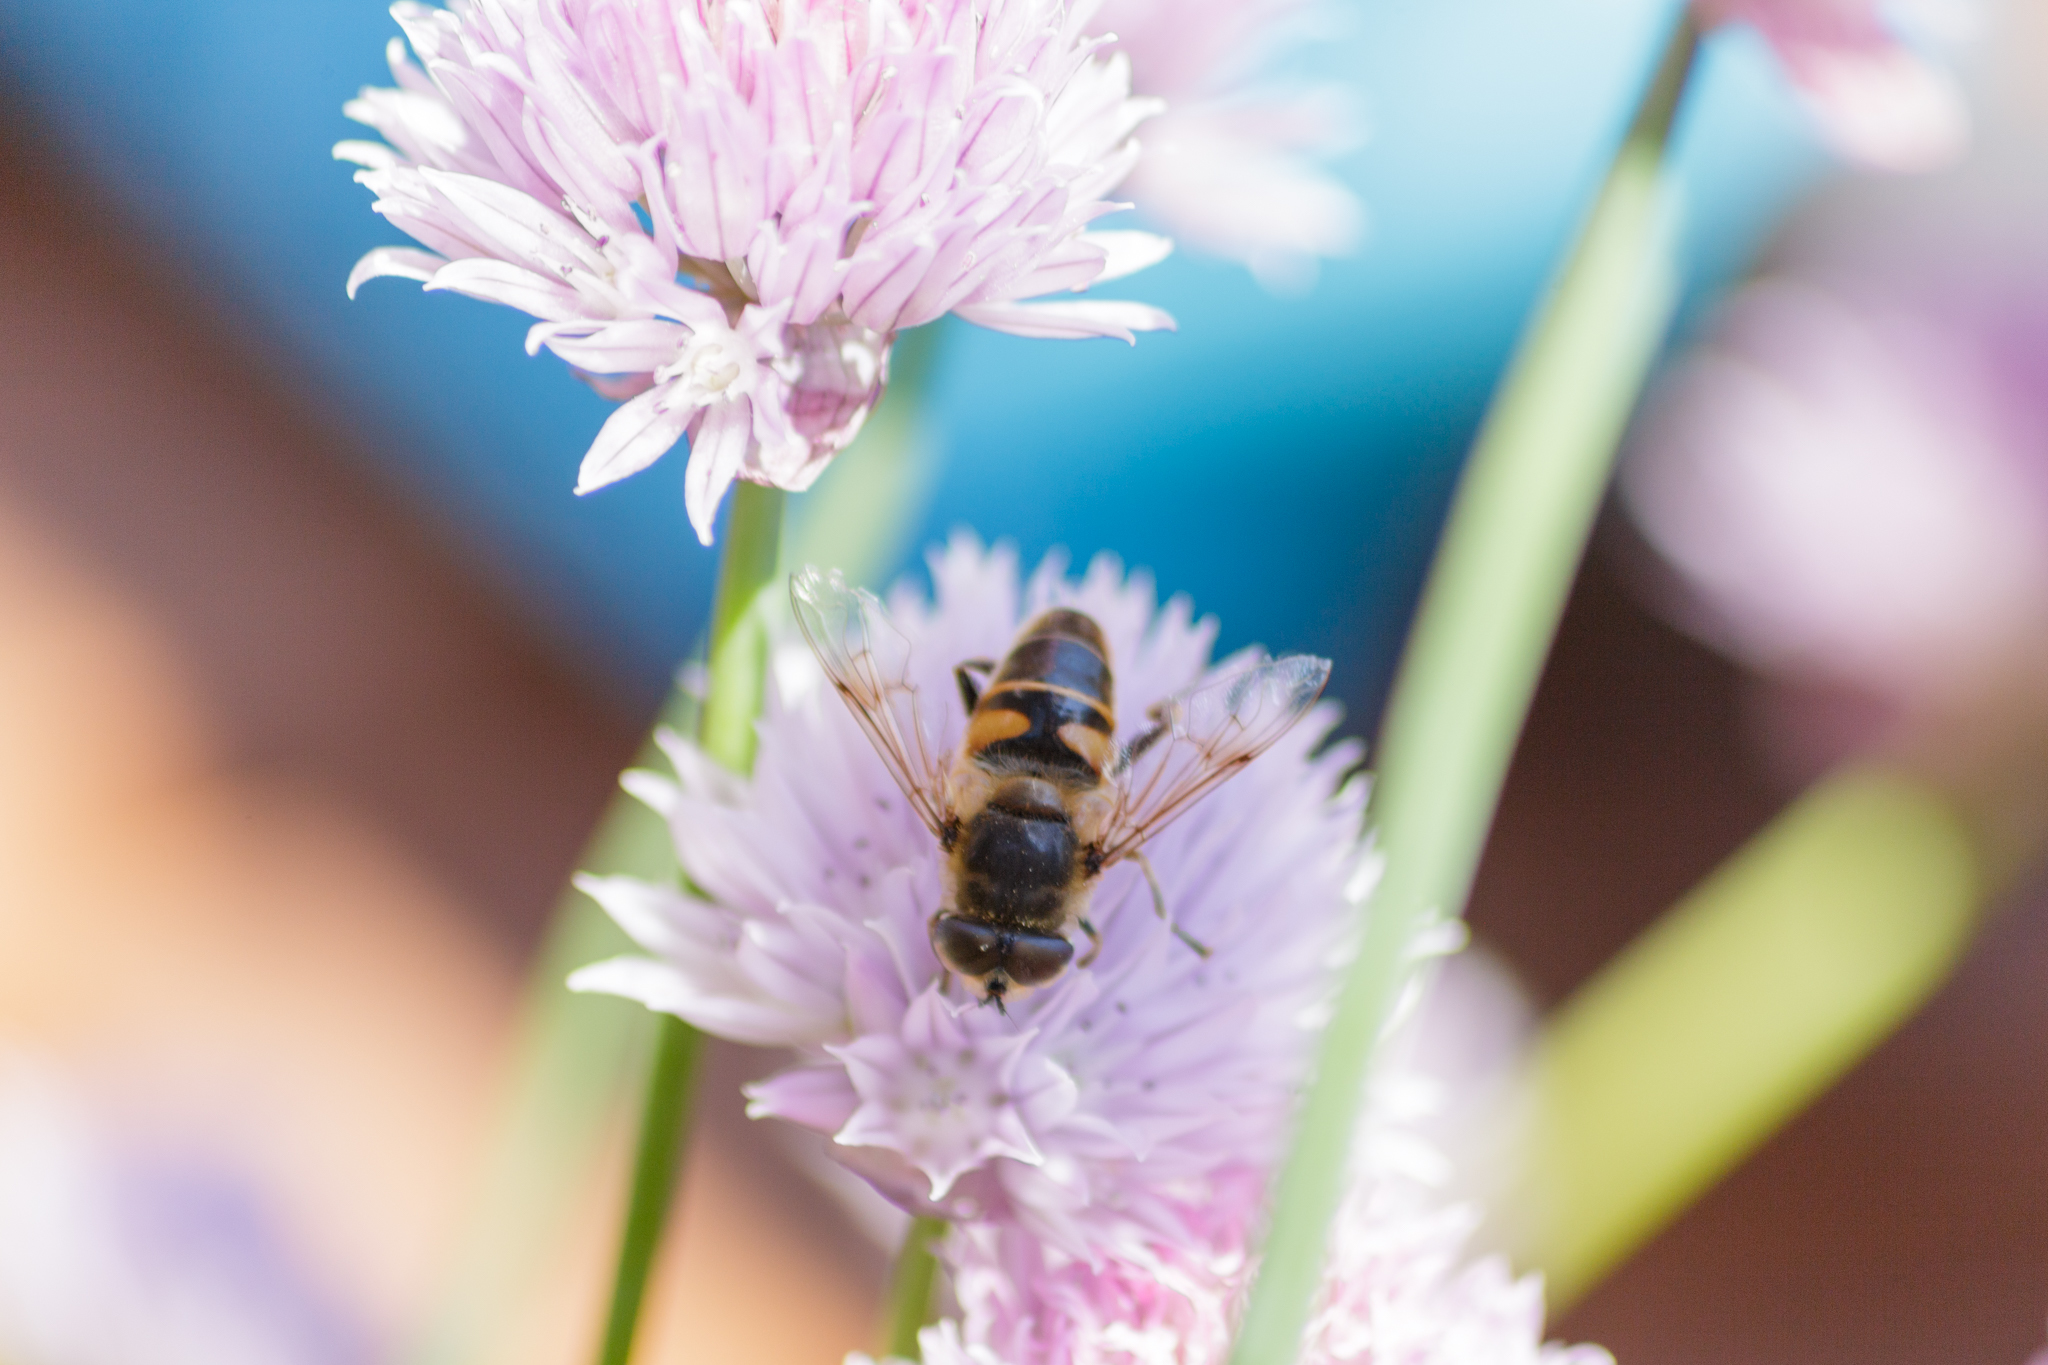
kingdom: Animalia
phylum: Arthropoda
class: Insecta
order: Diptera
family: Syrphidae
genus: Eristalis
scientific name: Eristalis tenax
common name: Drone fly
